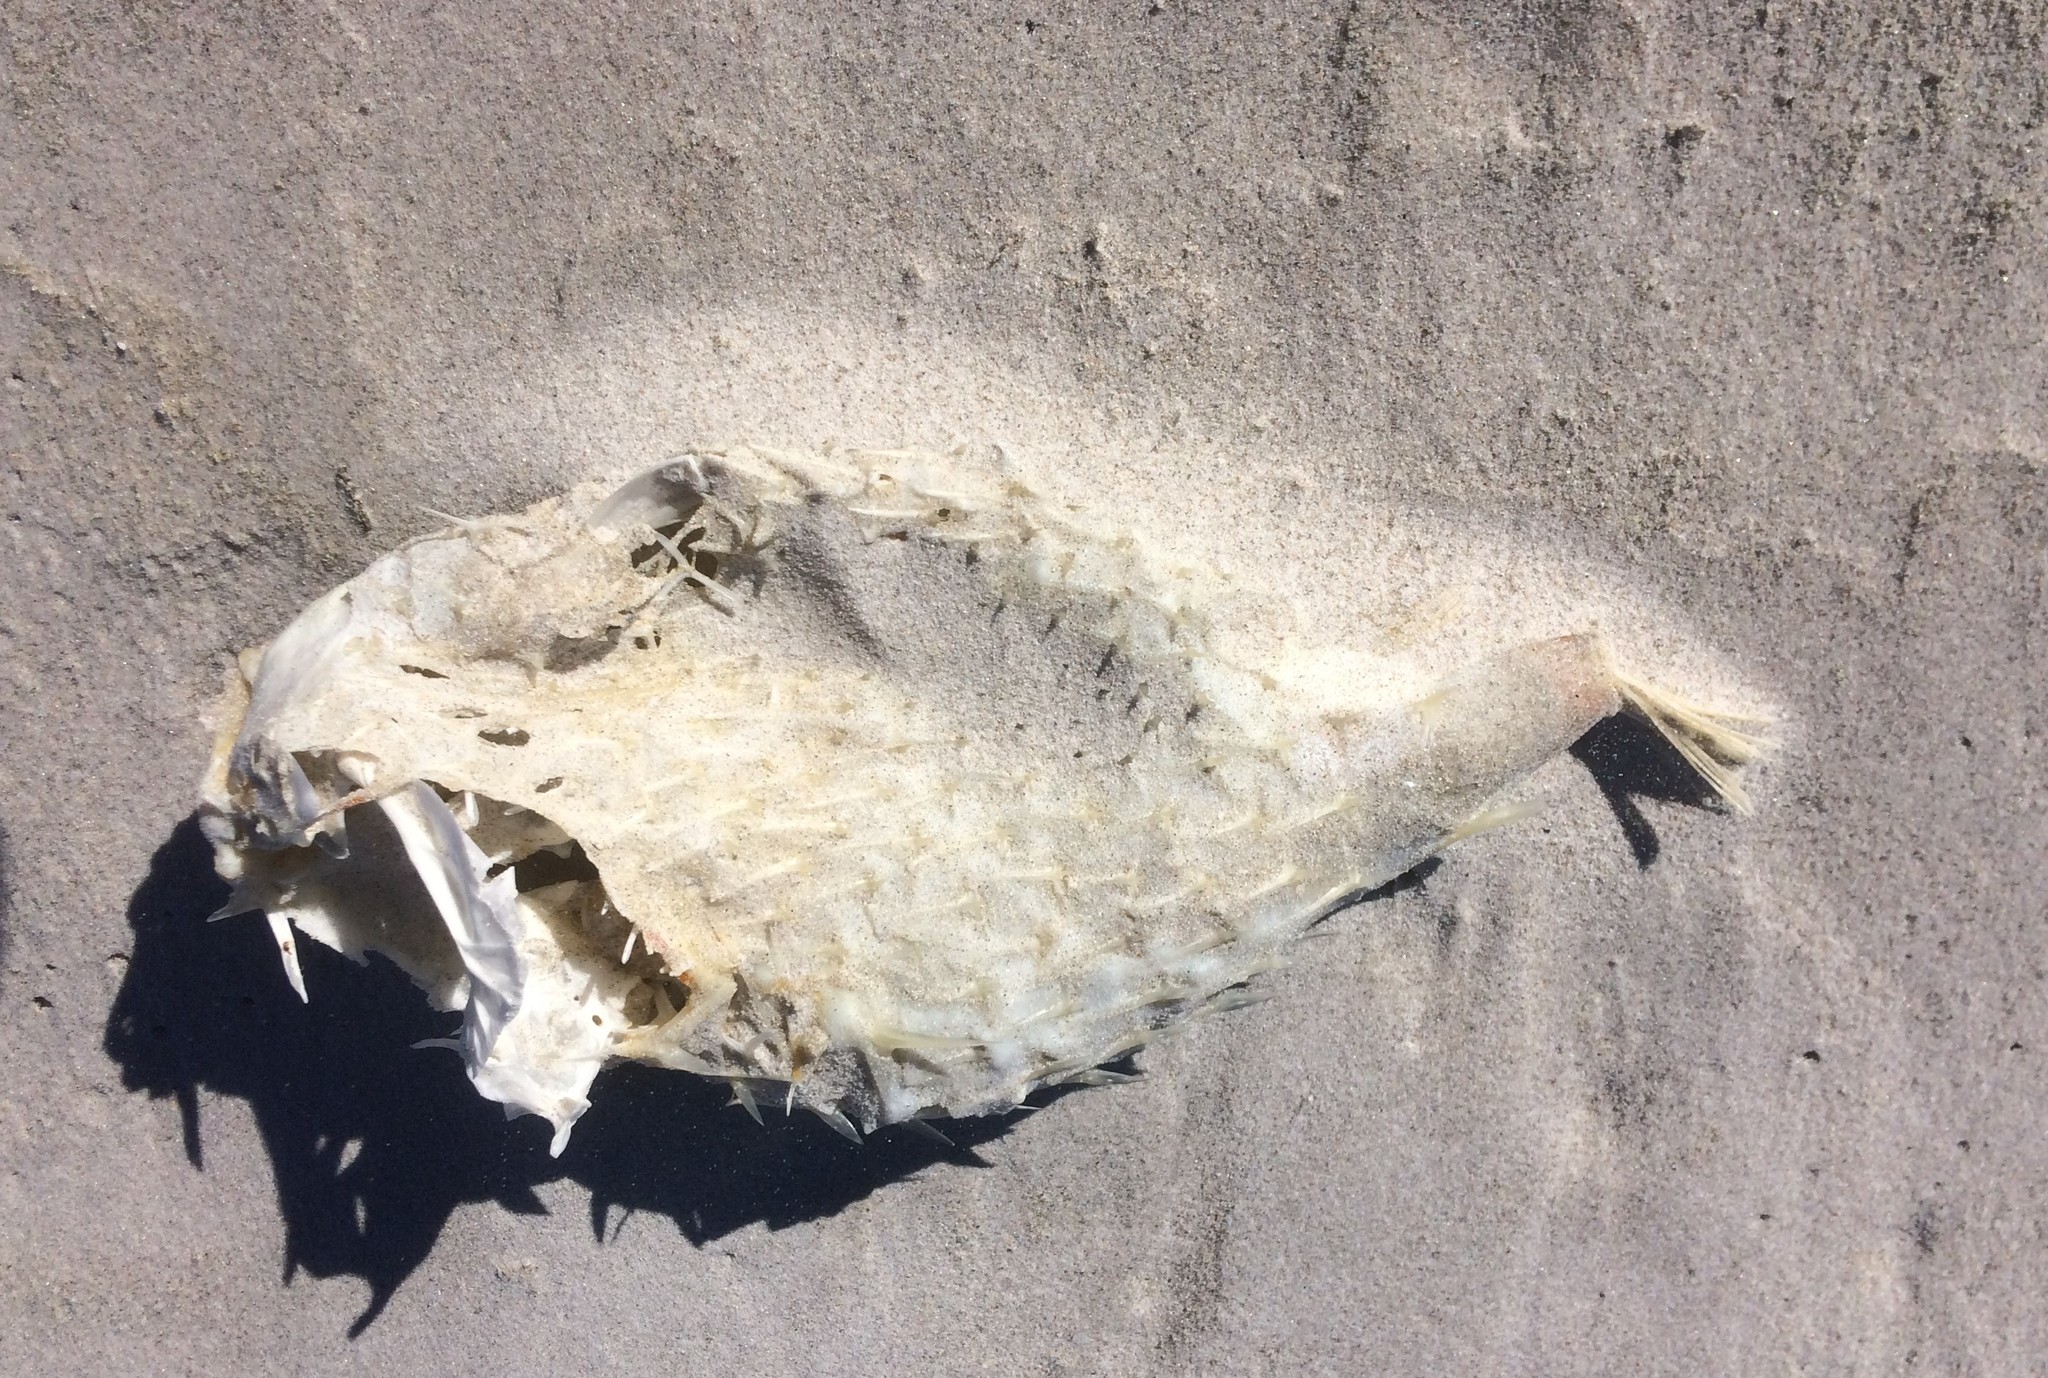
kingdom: Animalia
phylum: Chordata
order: Tetraodontiformes
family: Diodontidae
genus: Allomycterus
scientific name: Allomycterus pilatus
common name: No common name
